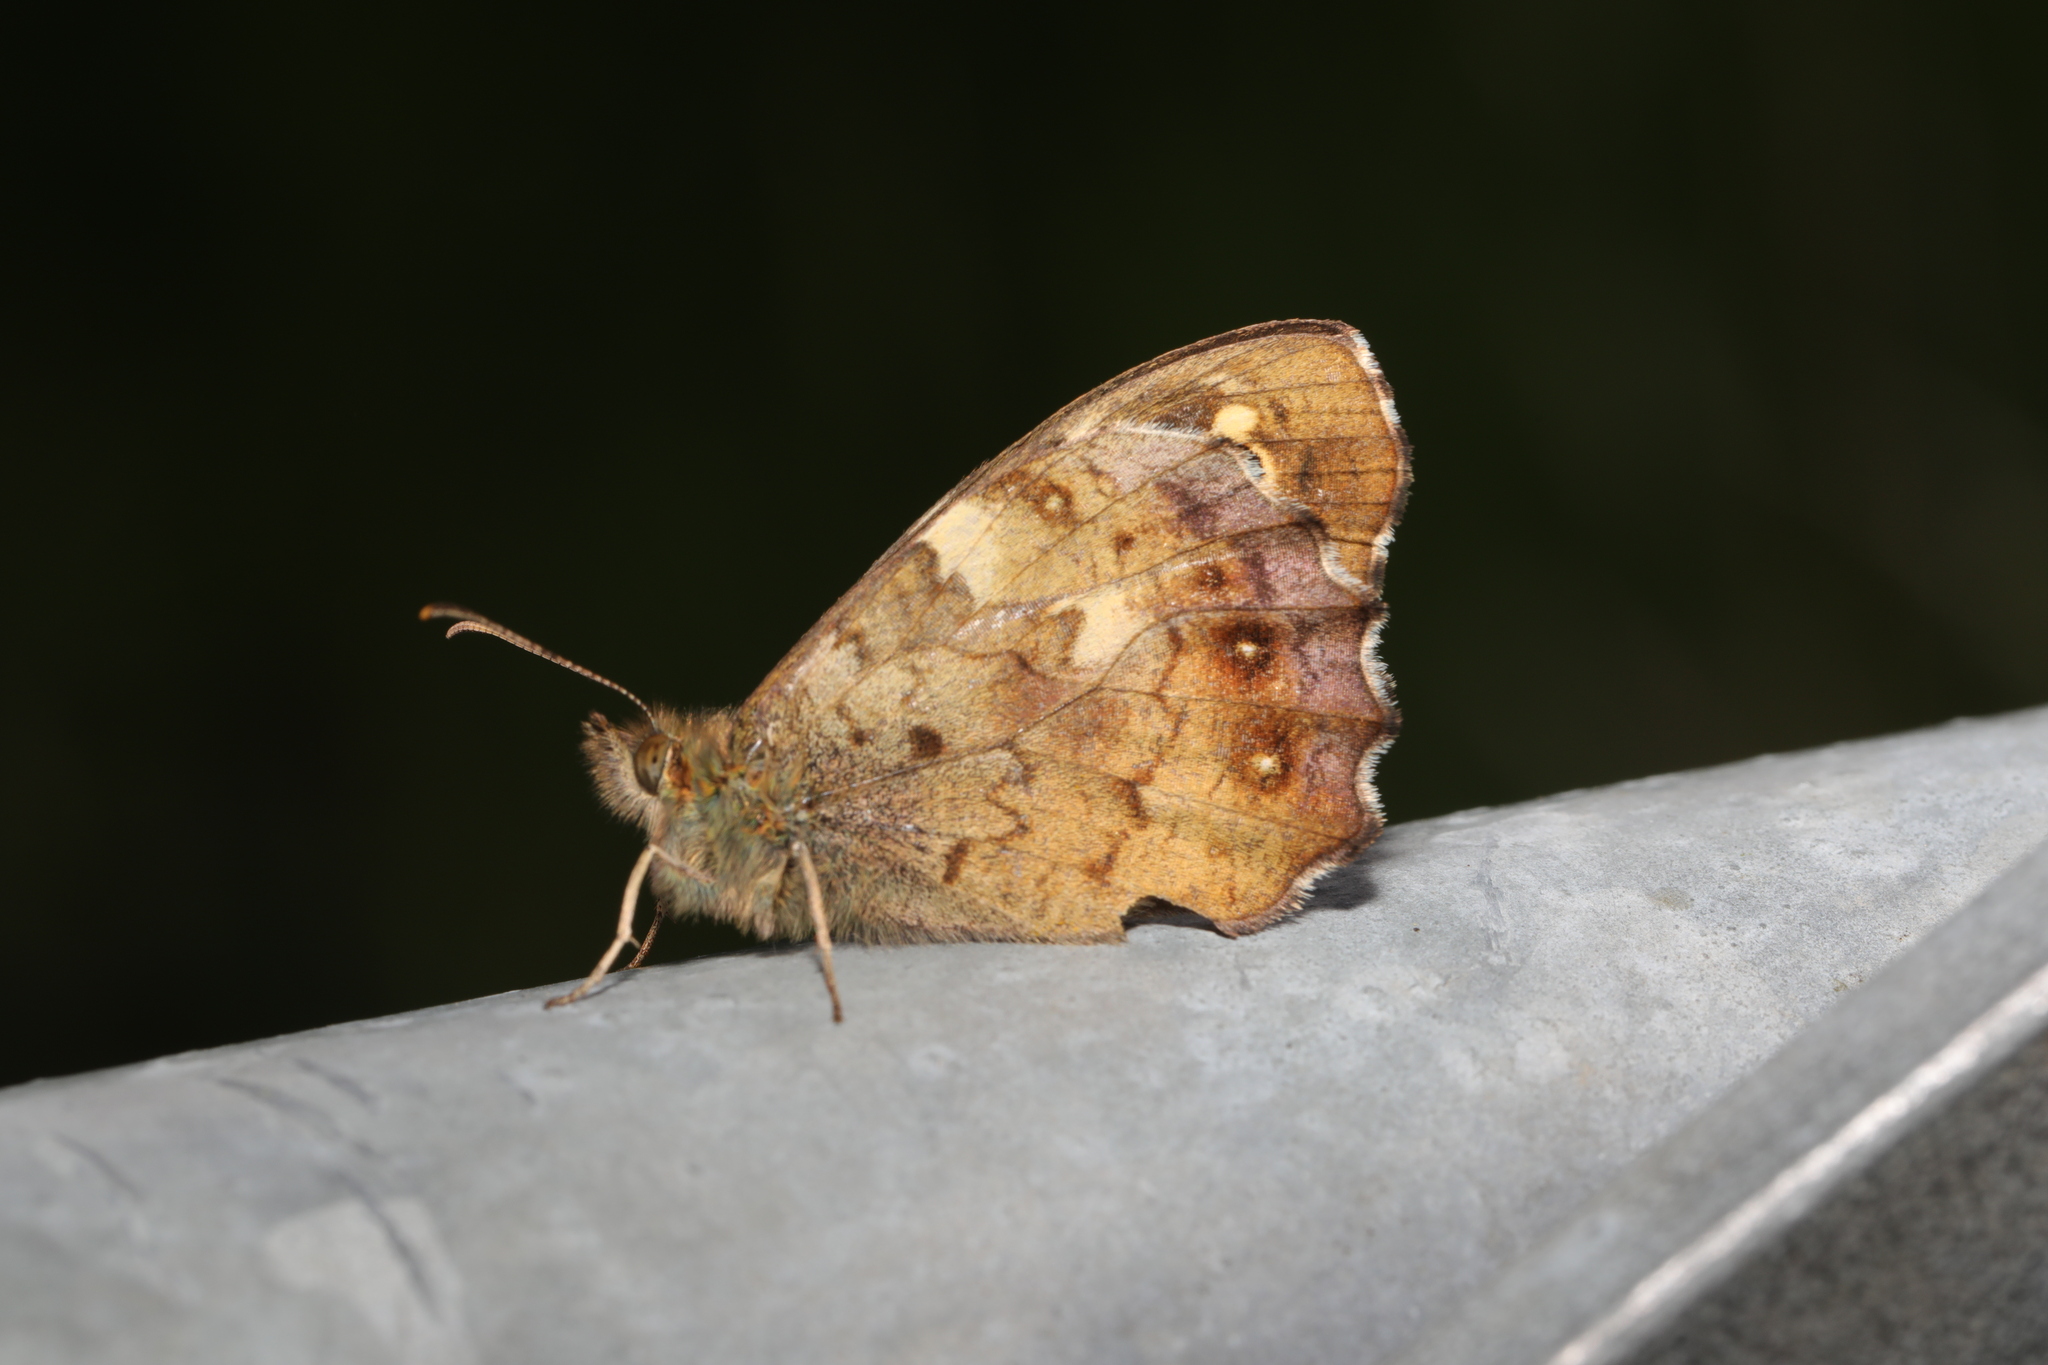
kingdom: Animalia
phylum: Arthropoda
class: Insecta
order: Lepidoptera
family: Nymphalidae
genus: Pararge
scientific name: Pararge aegeria
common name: Speckled wood
